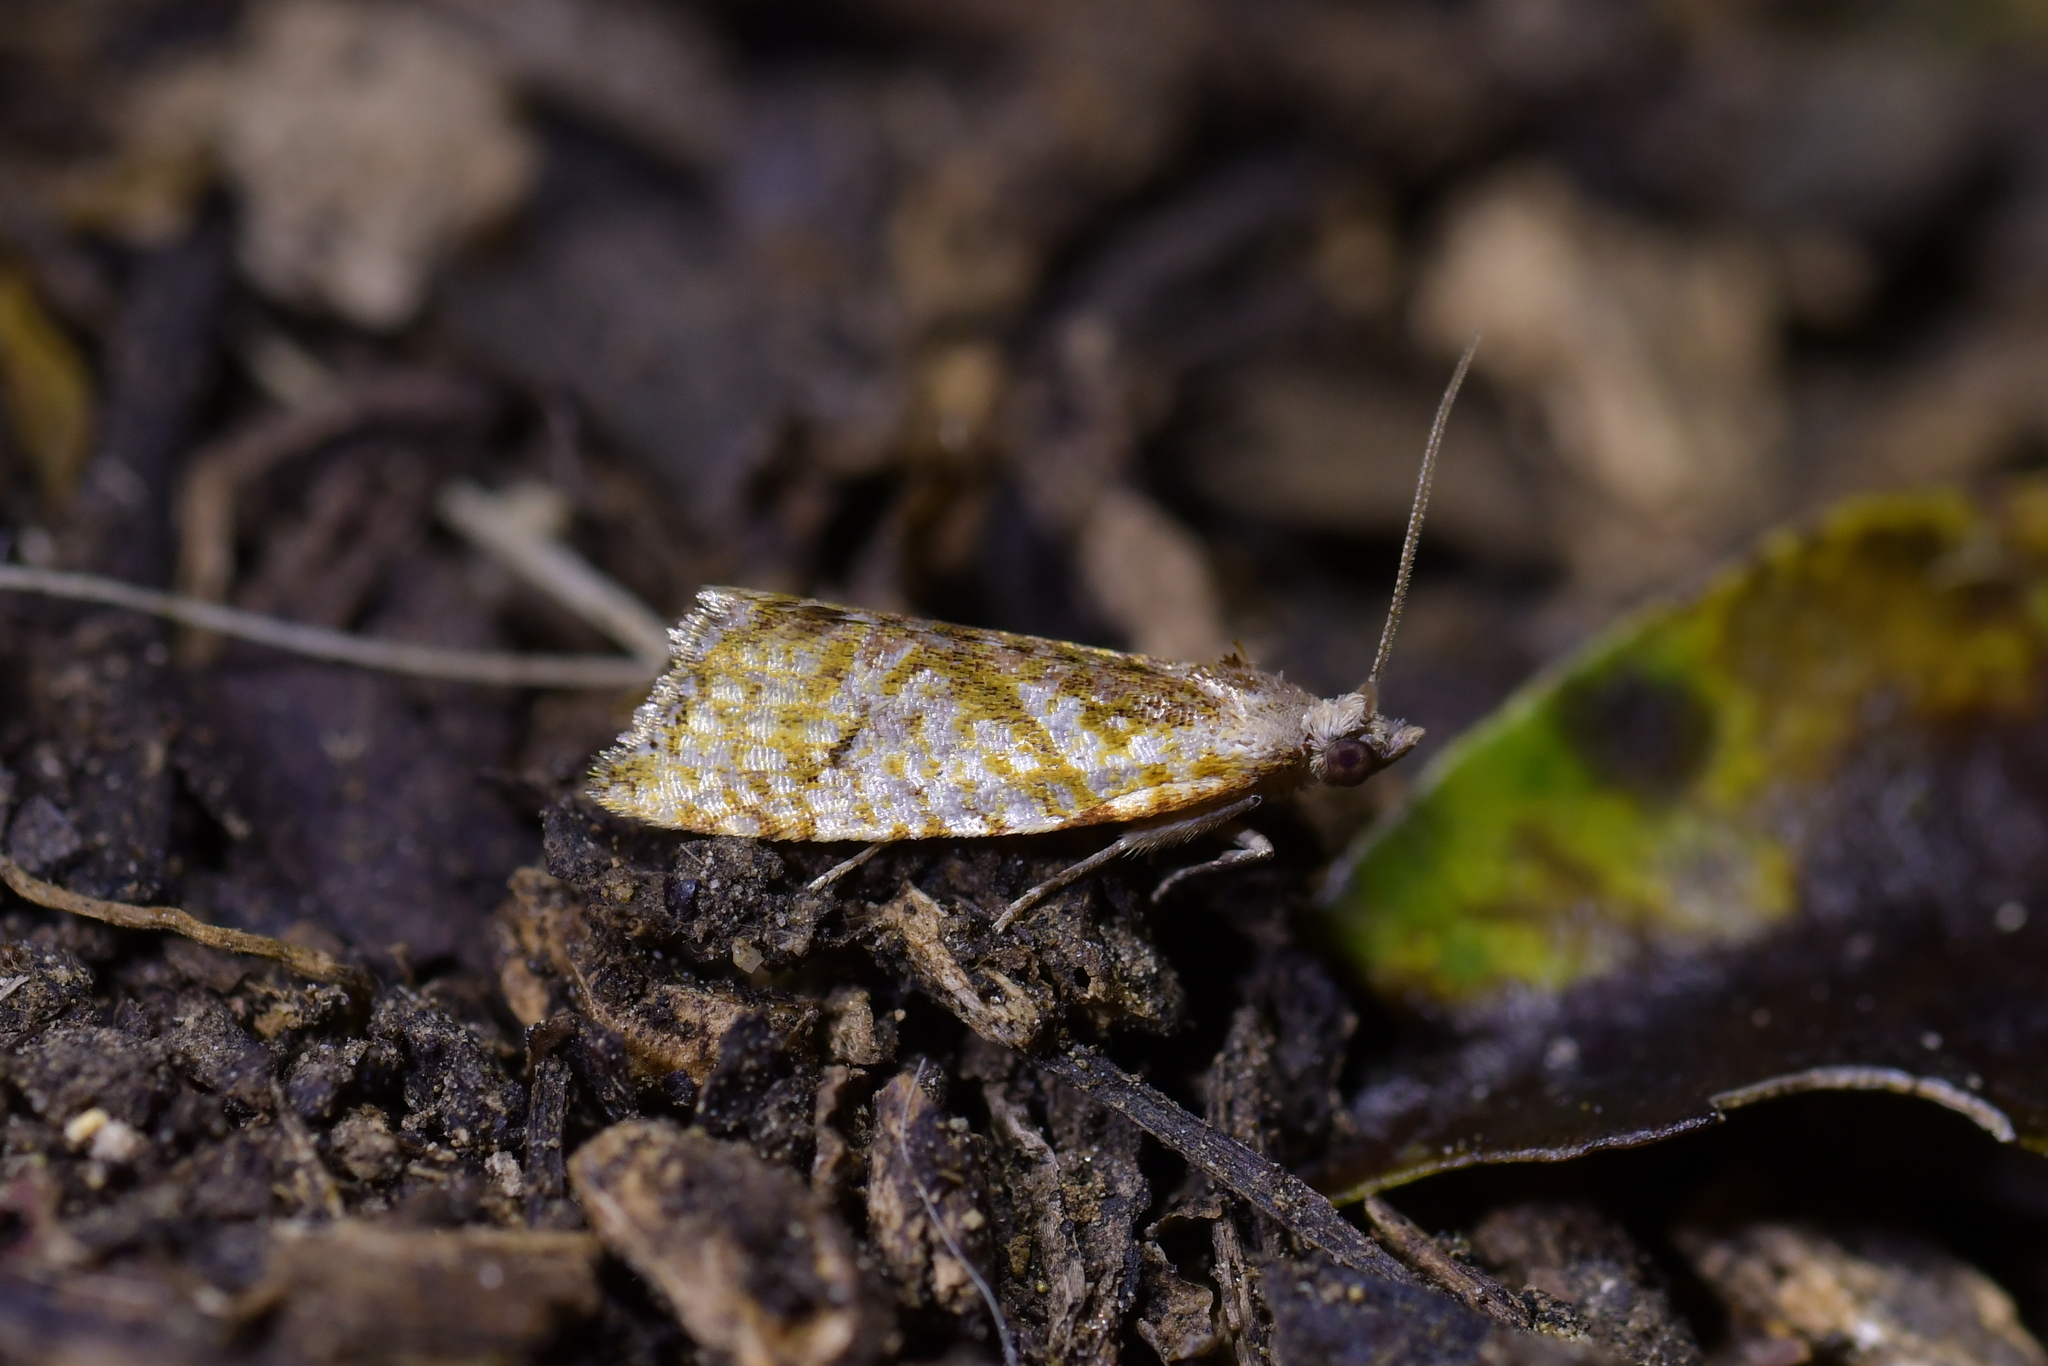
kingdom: Animalia
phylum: Arthropoda
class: Insecta
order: Lepidoptera
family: Tortricidae
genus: Pyrgotis
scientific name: Pyrgotis plagiatana
